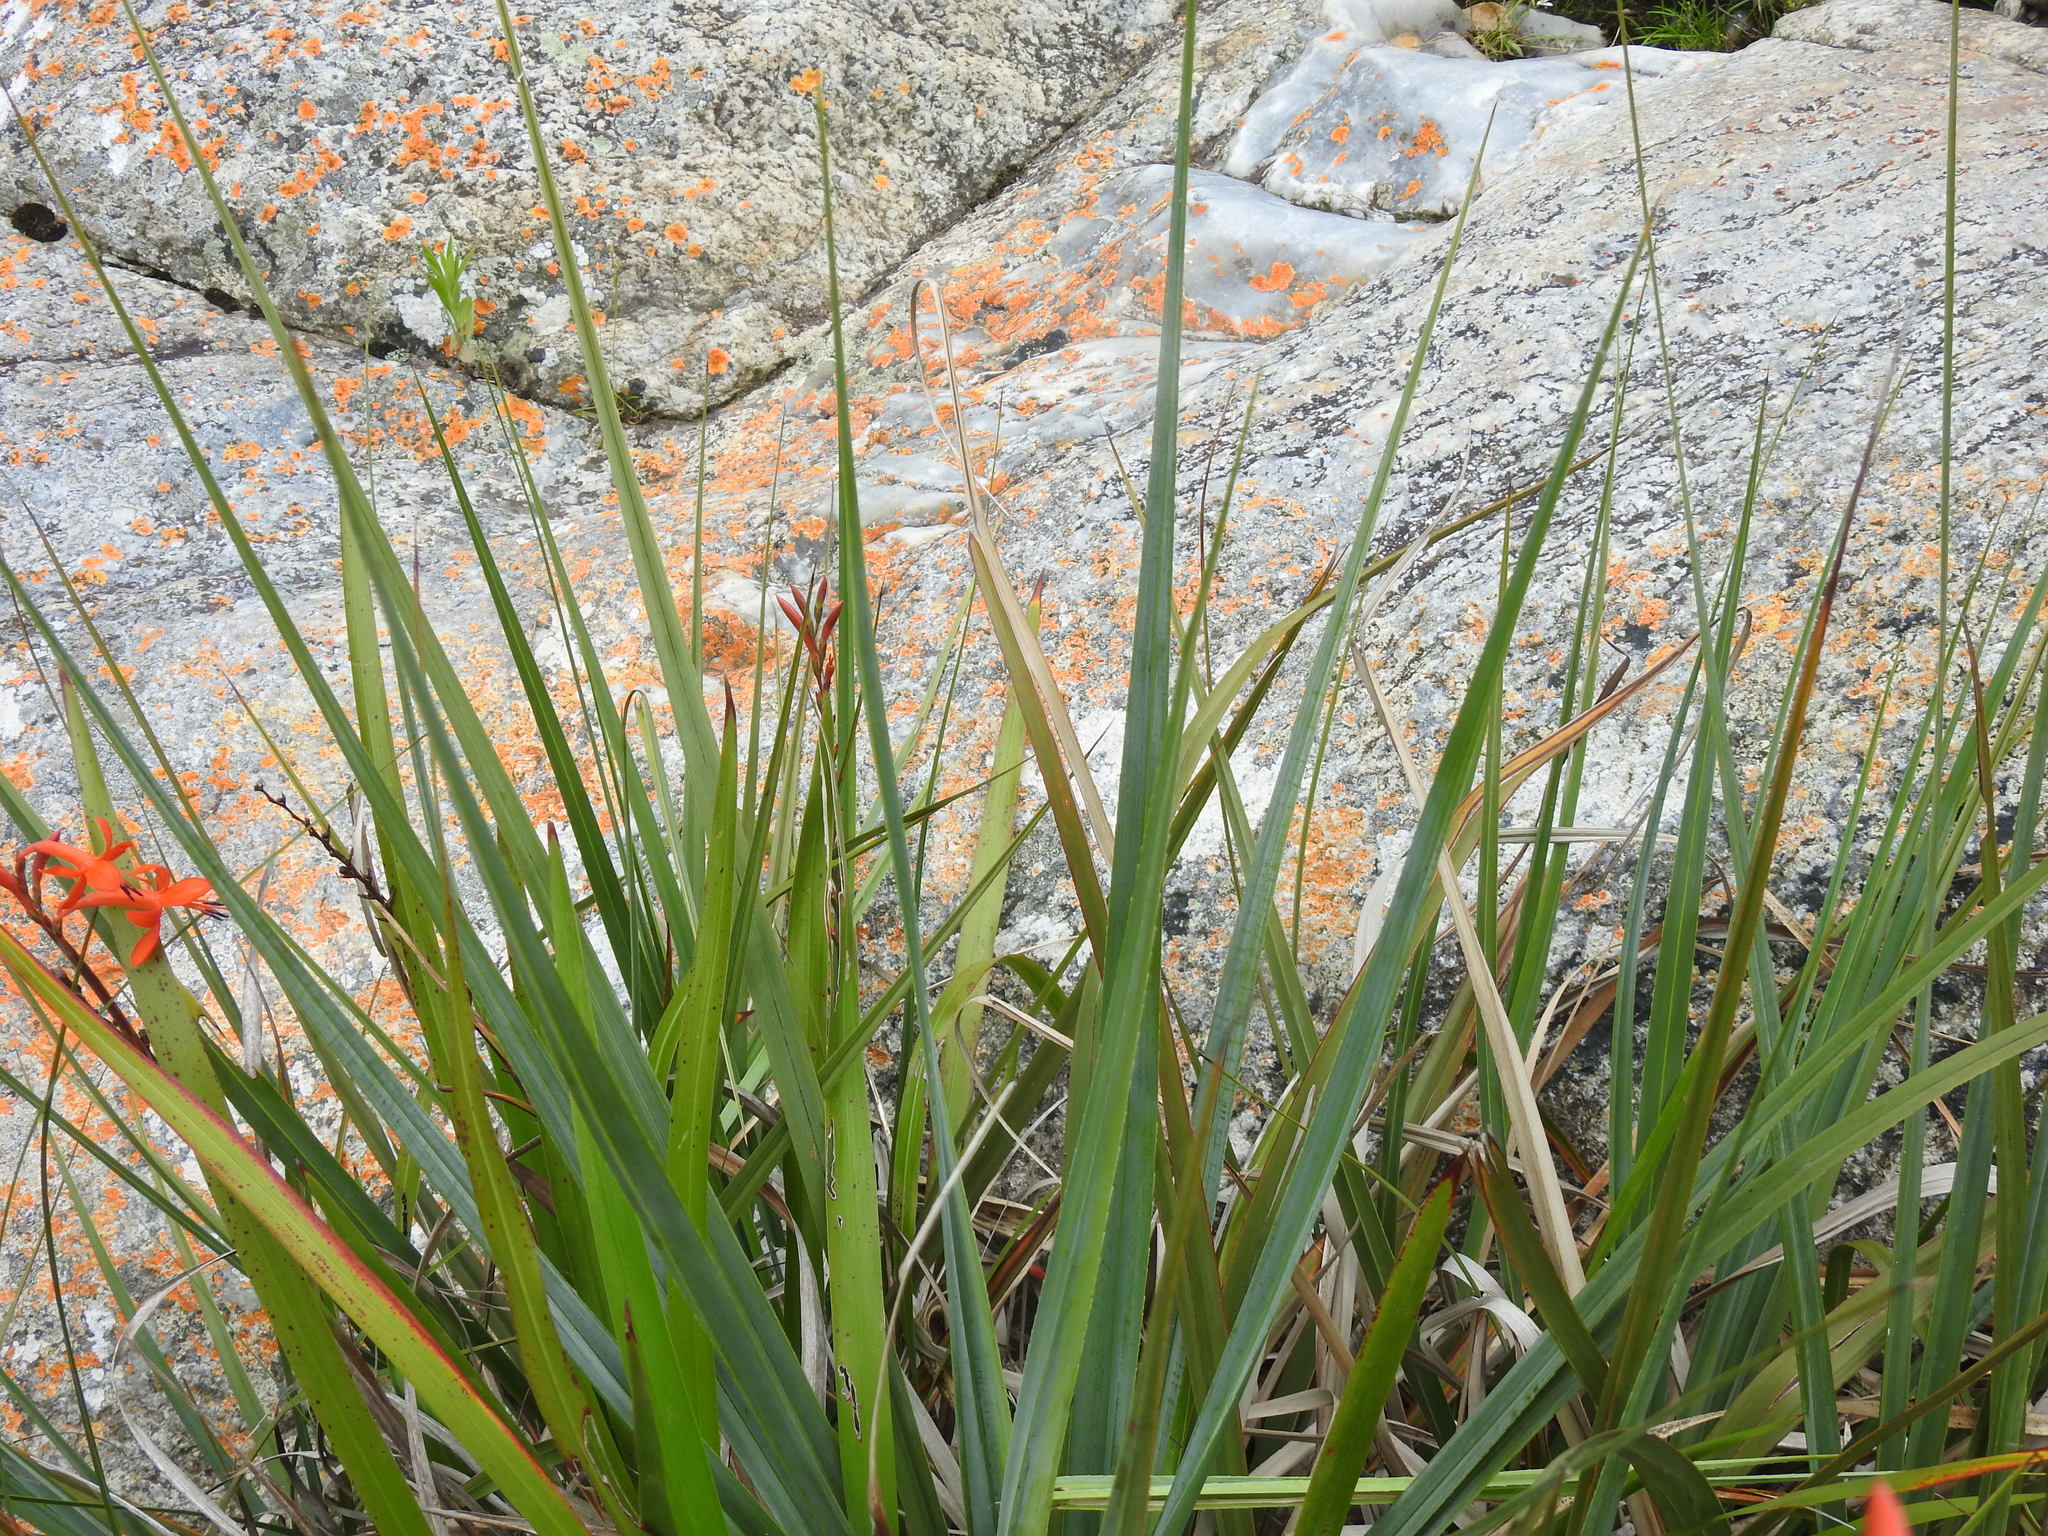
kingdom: Plantae
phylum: Tracheophyta
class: Liliopsida
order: Asparagales
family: Iridaceae
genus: Watsonia
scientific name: Watsonia pillansii
